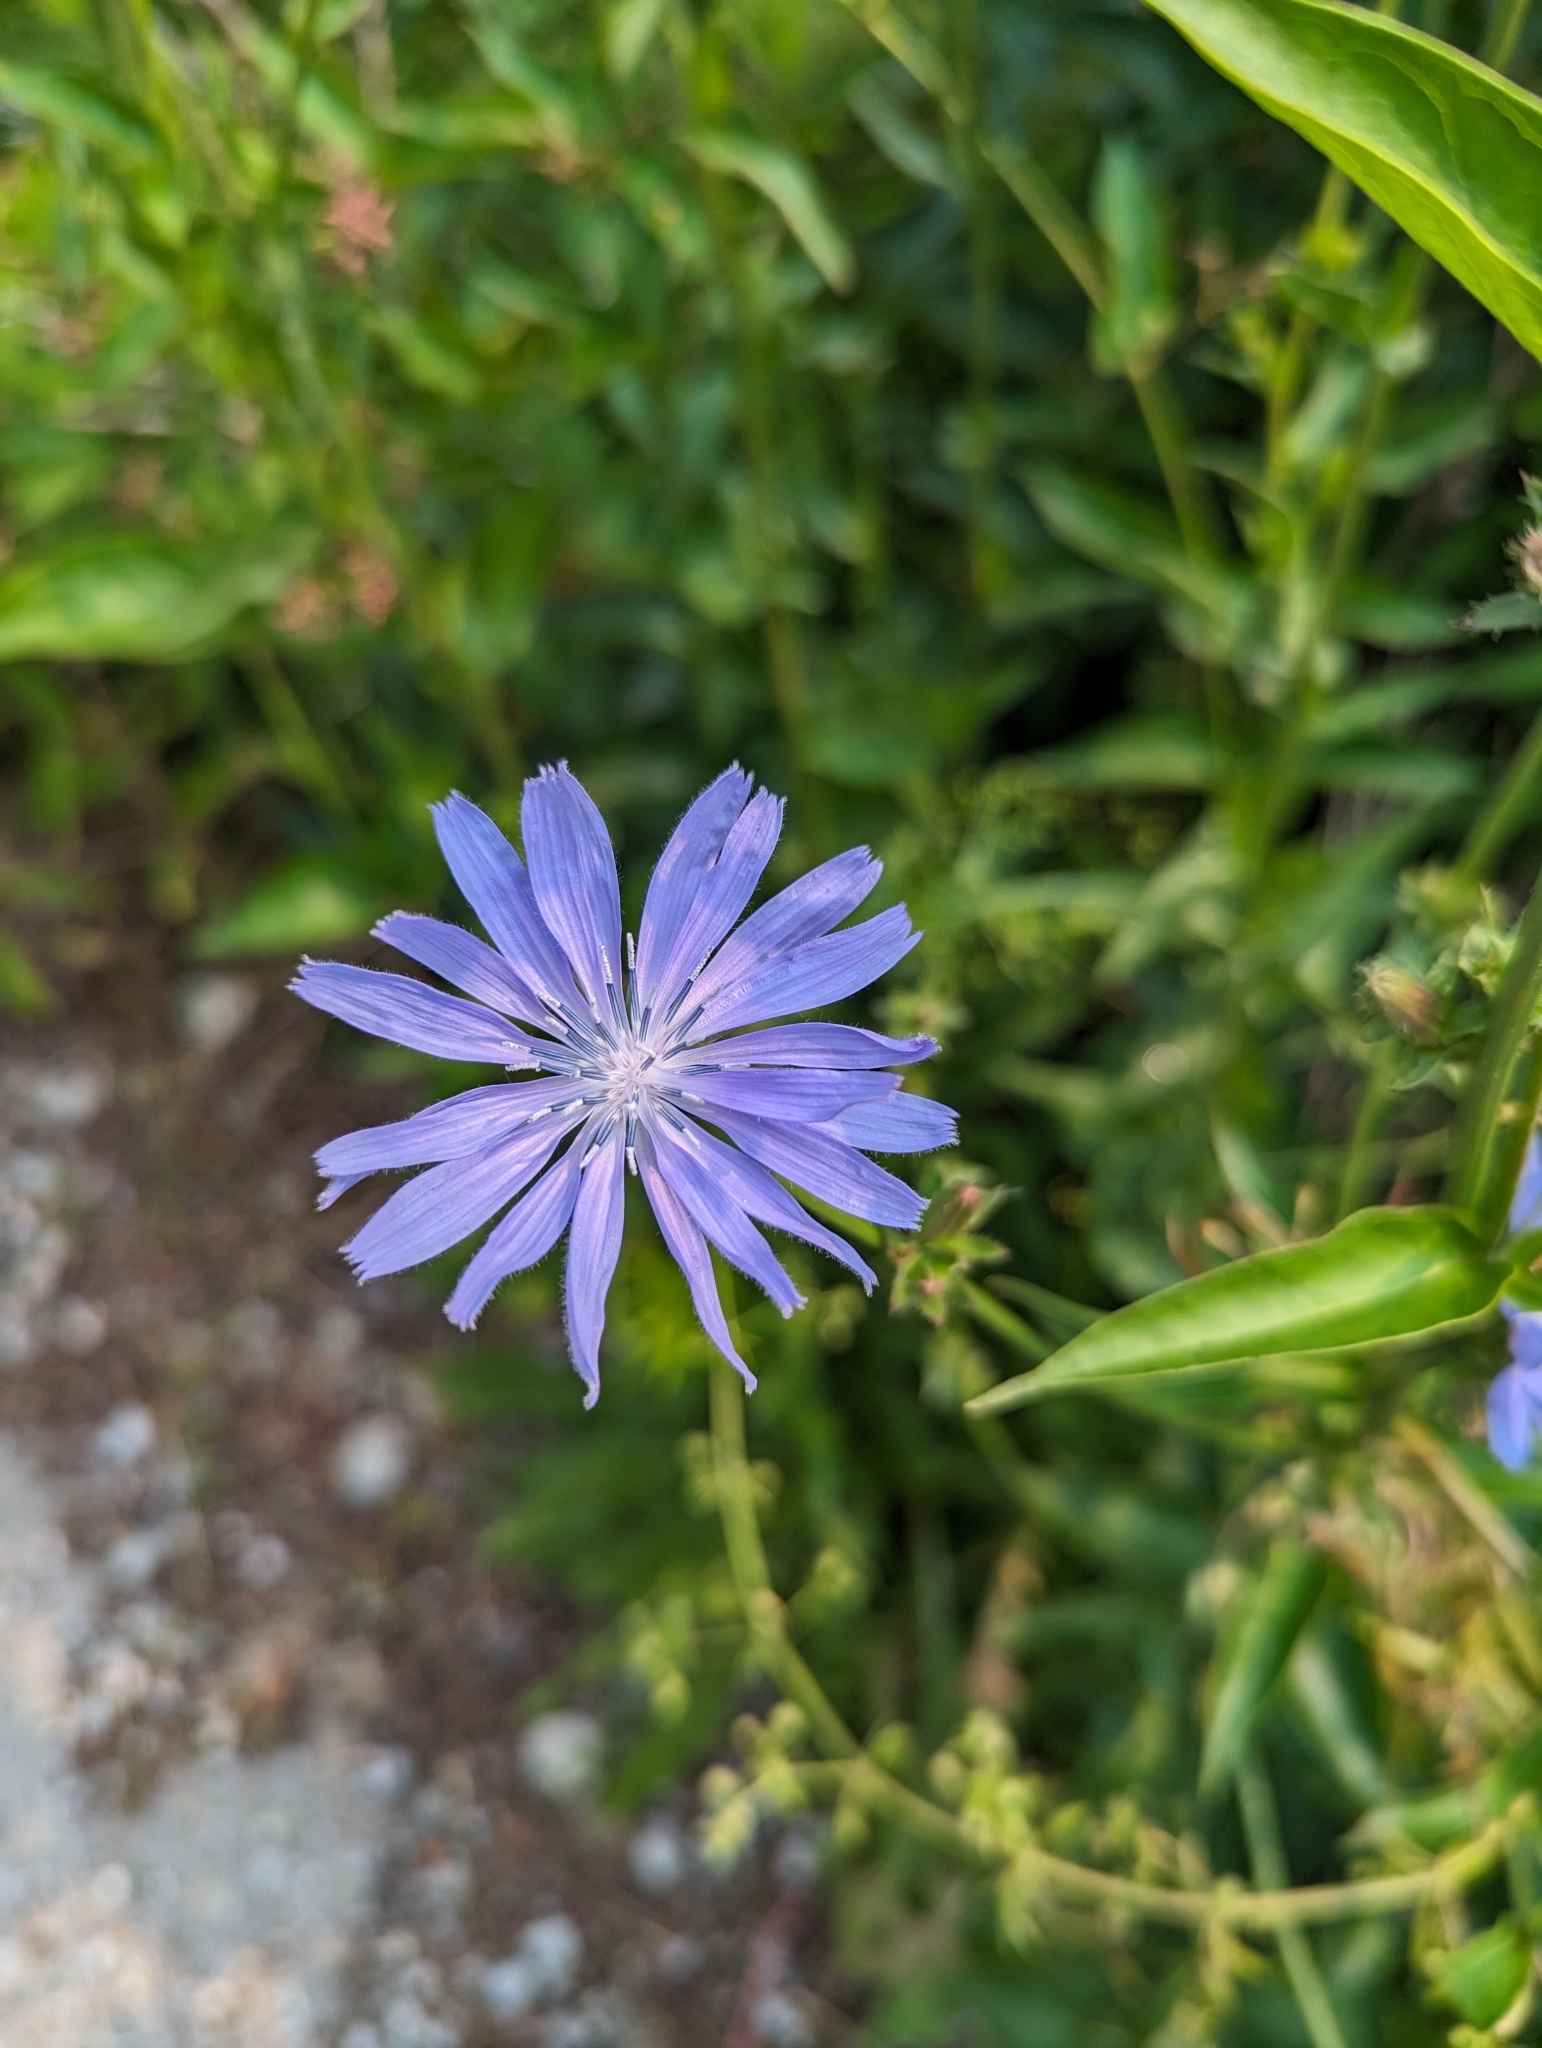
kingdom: Plantae
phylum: Tracheophyta
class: Magnoliopsida
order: Asterales
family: Asteraceae
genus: Cichorium
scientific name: Cichorium intybus
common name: Chicory
